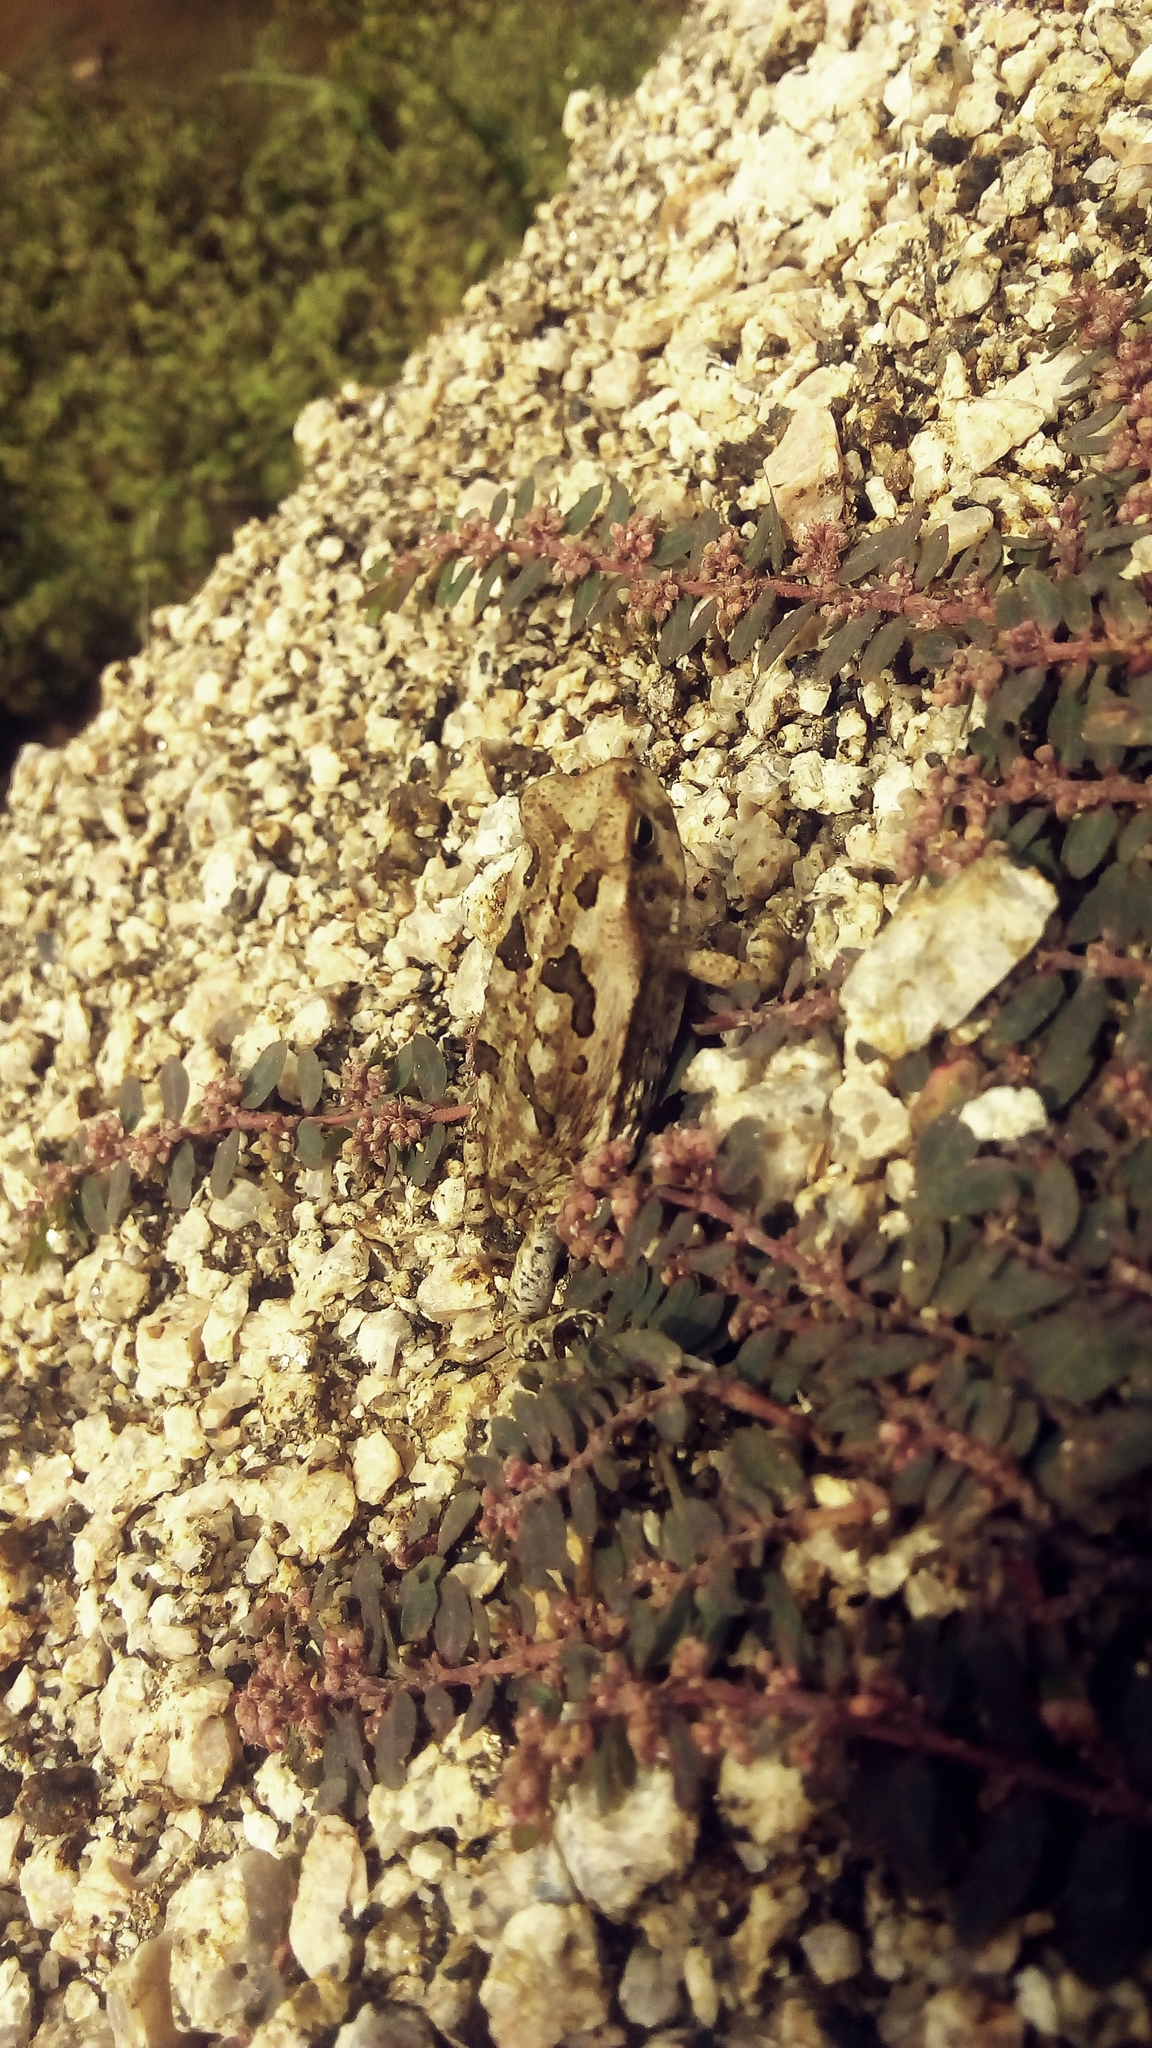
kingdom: Animalia
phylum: Chordata
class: Amphibia
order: Anura
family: Bufonidae
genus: Rhinella
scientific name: Rhinella diptycha
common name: Cope's toad
